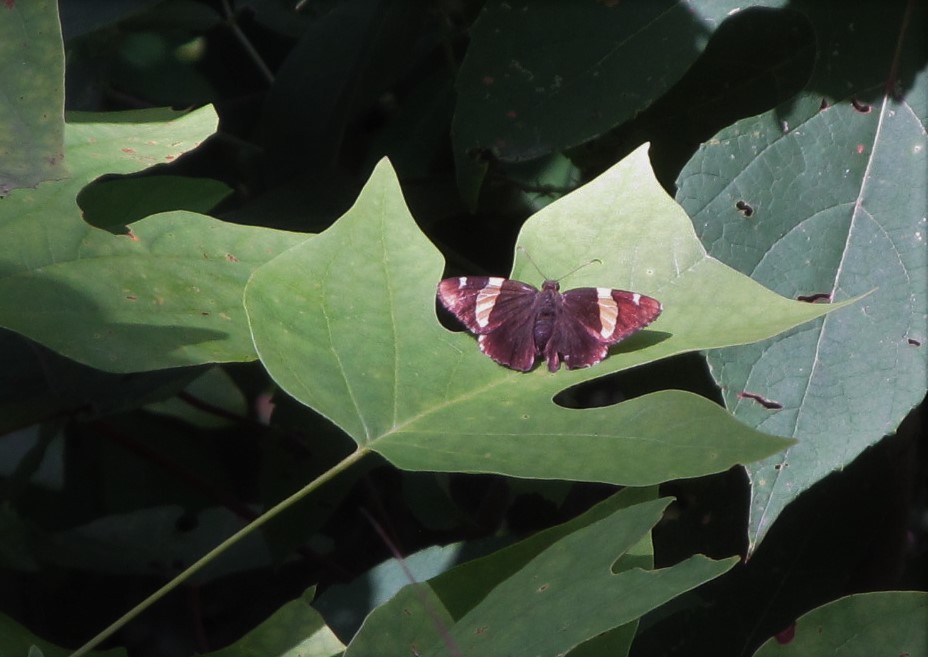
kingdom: Animalia
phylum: Arthropoda
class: Arachnida
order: Scorpiones
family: Bothriuridae
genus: Telegonus
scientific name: Telegonus cellus
